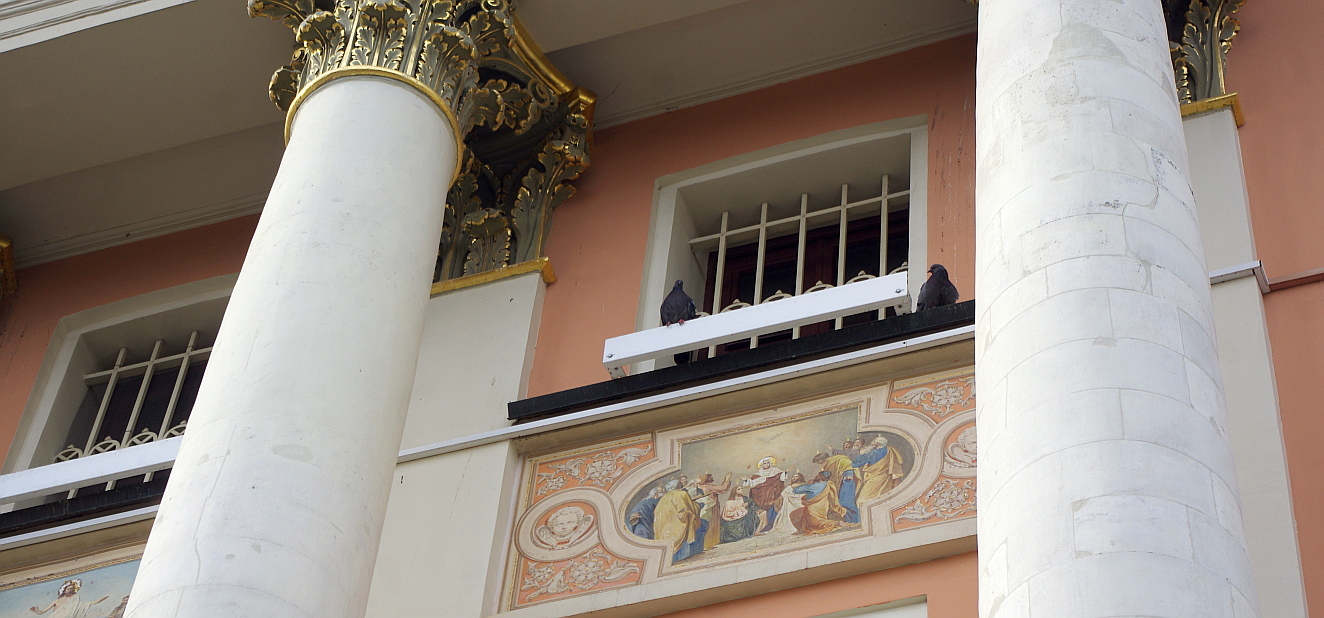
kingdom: Animalia
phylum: Chordata
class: Aves
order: Columbiformes
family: Columbidae
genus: Columba
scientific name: Columba livia
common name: Rock pigeon
